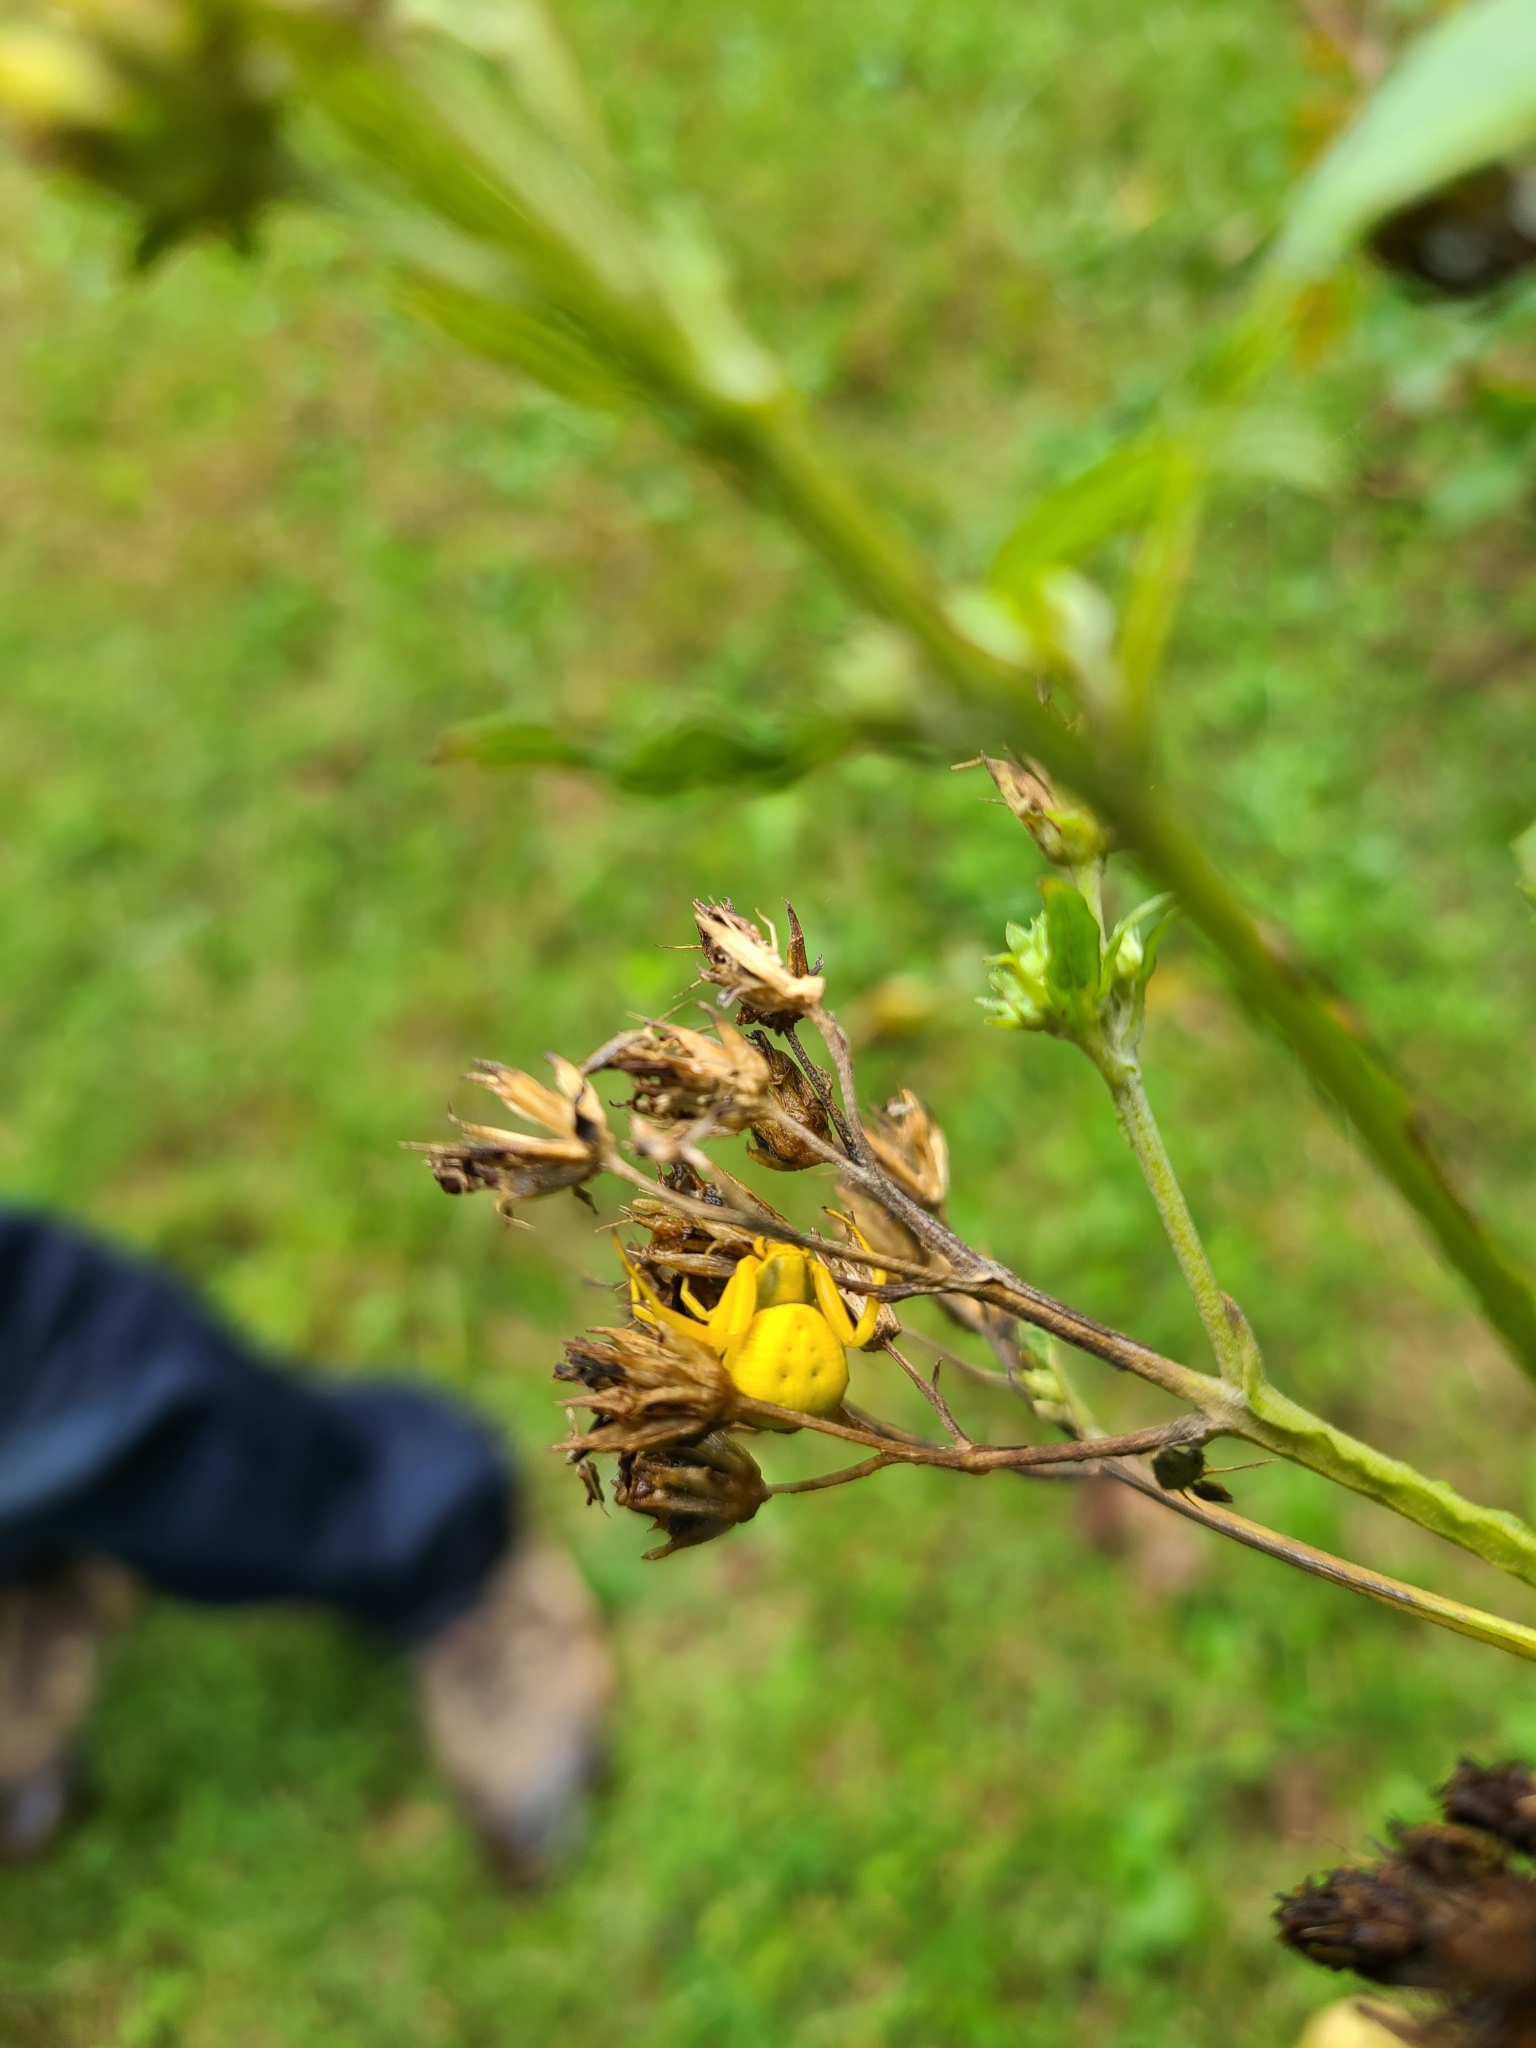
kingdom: Animalia
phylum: Arthropoda
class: Arachnida
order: Araneae
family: Thomisidae
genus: Misumenoides
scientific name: Misumenoides formosipes
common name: White-banded crab spider
